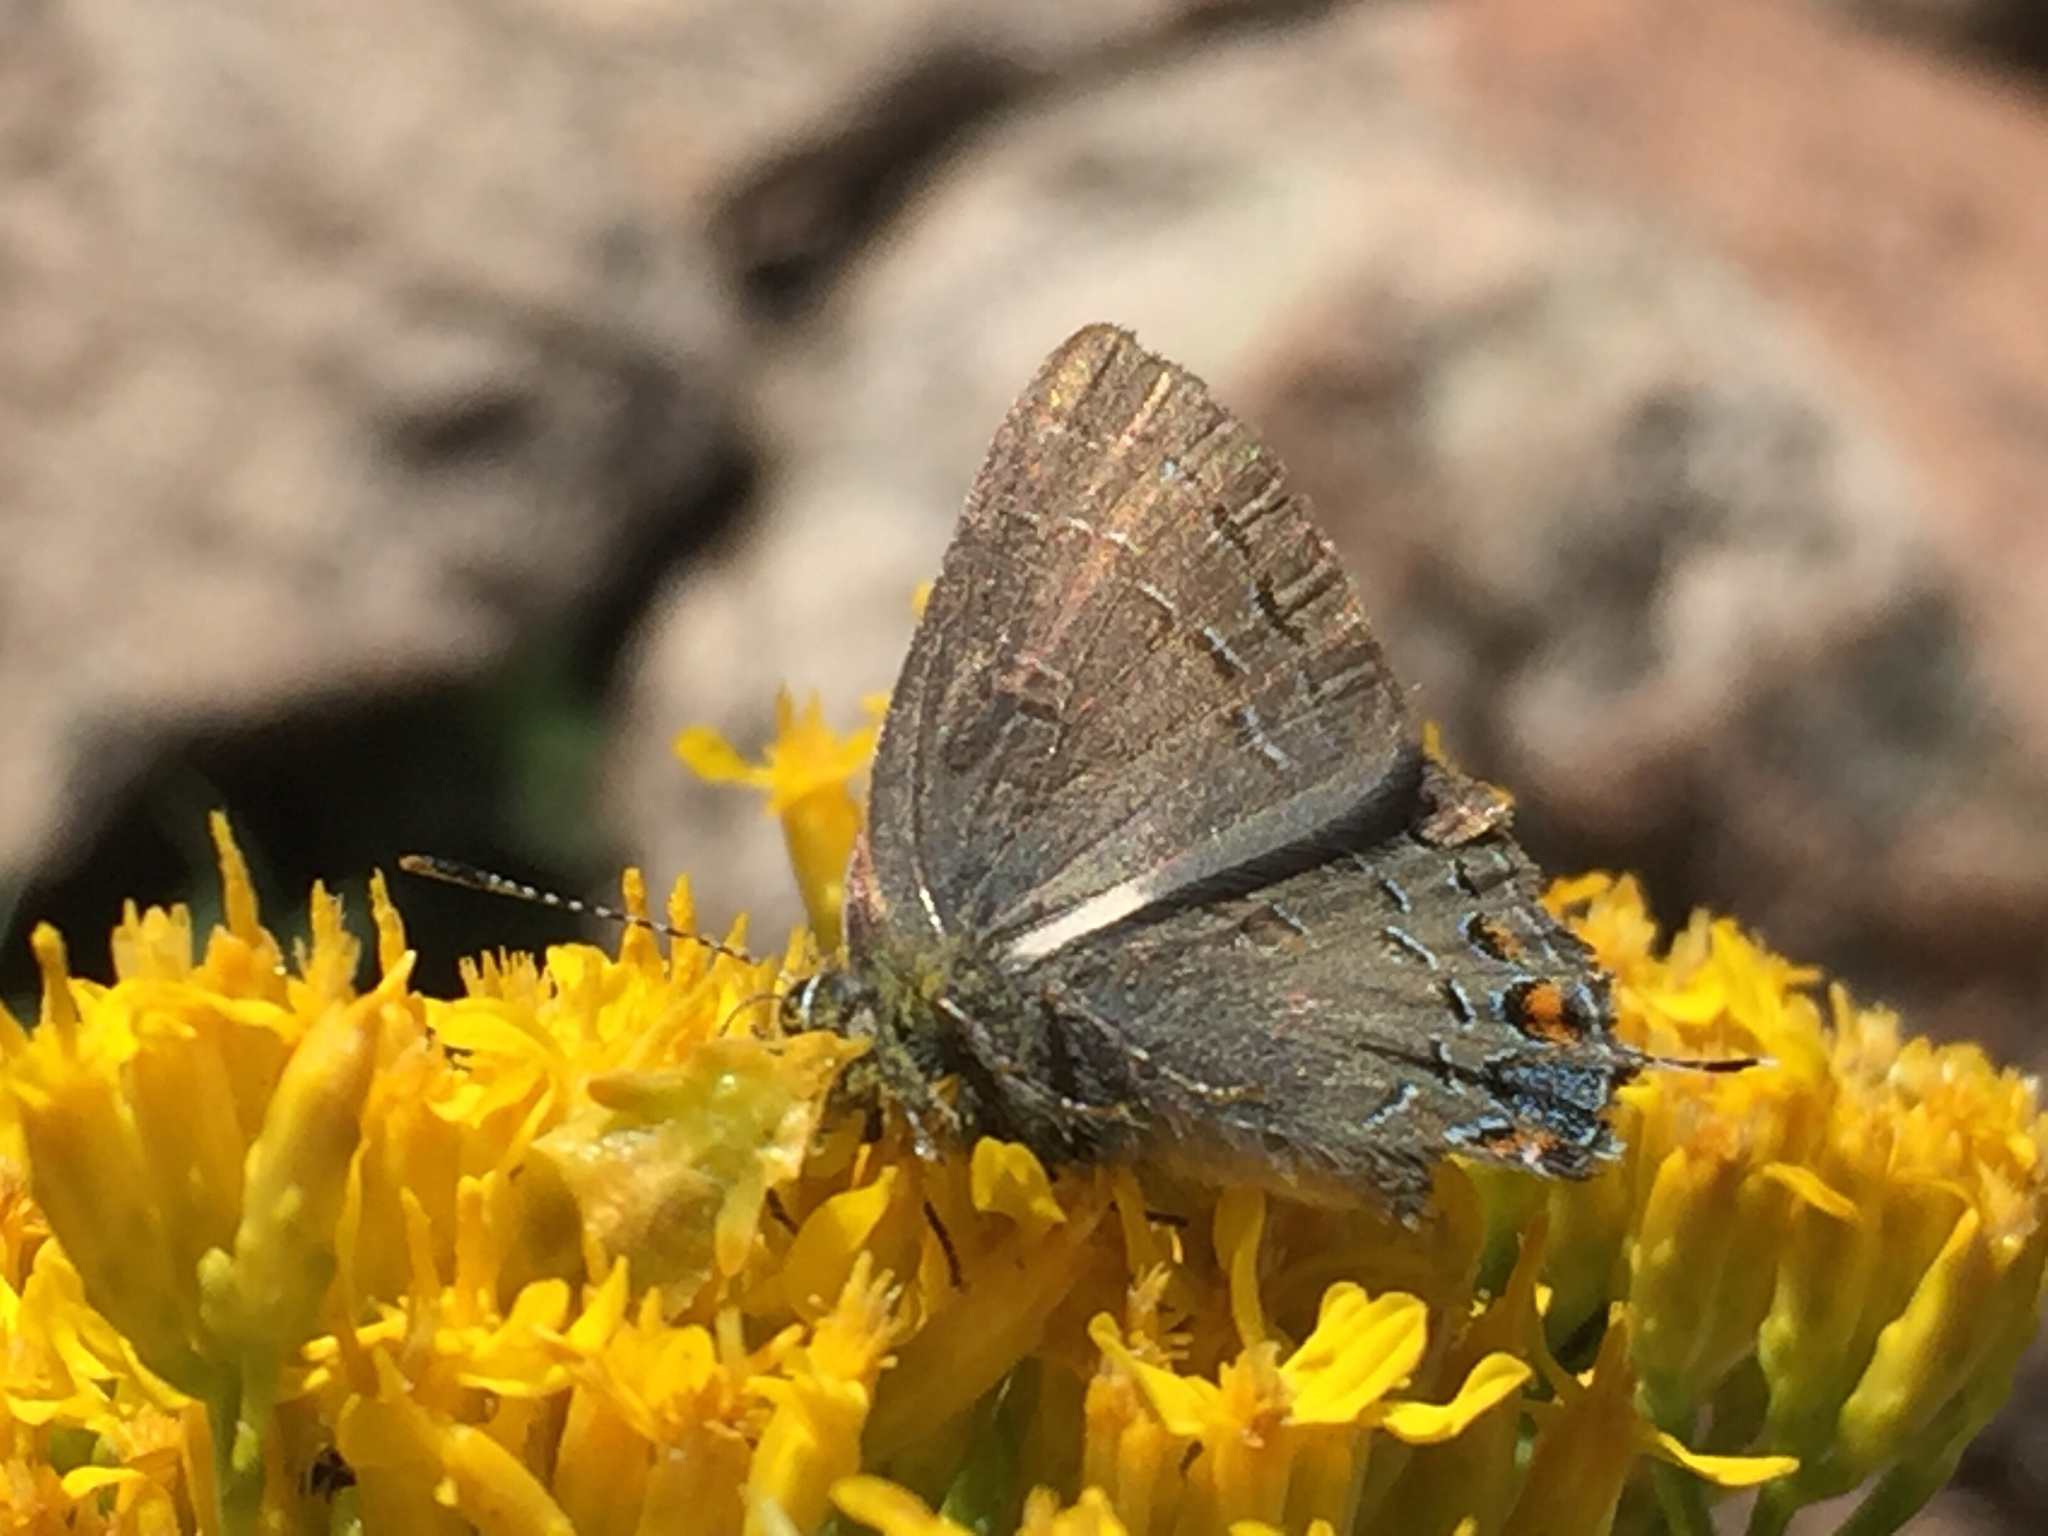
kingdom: Animalia
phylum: Arthropoda
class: Insecta
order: Lepidoptera
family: Lycaenidae
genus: Satyrium
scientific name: Satyrium calanus
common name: Banded hairstreak
